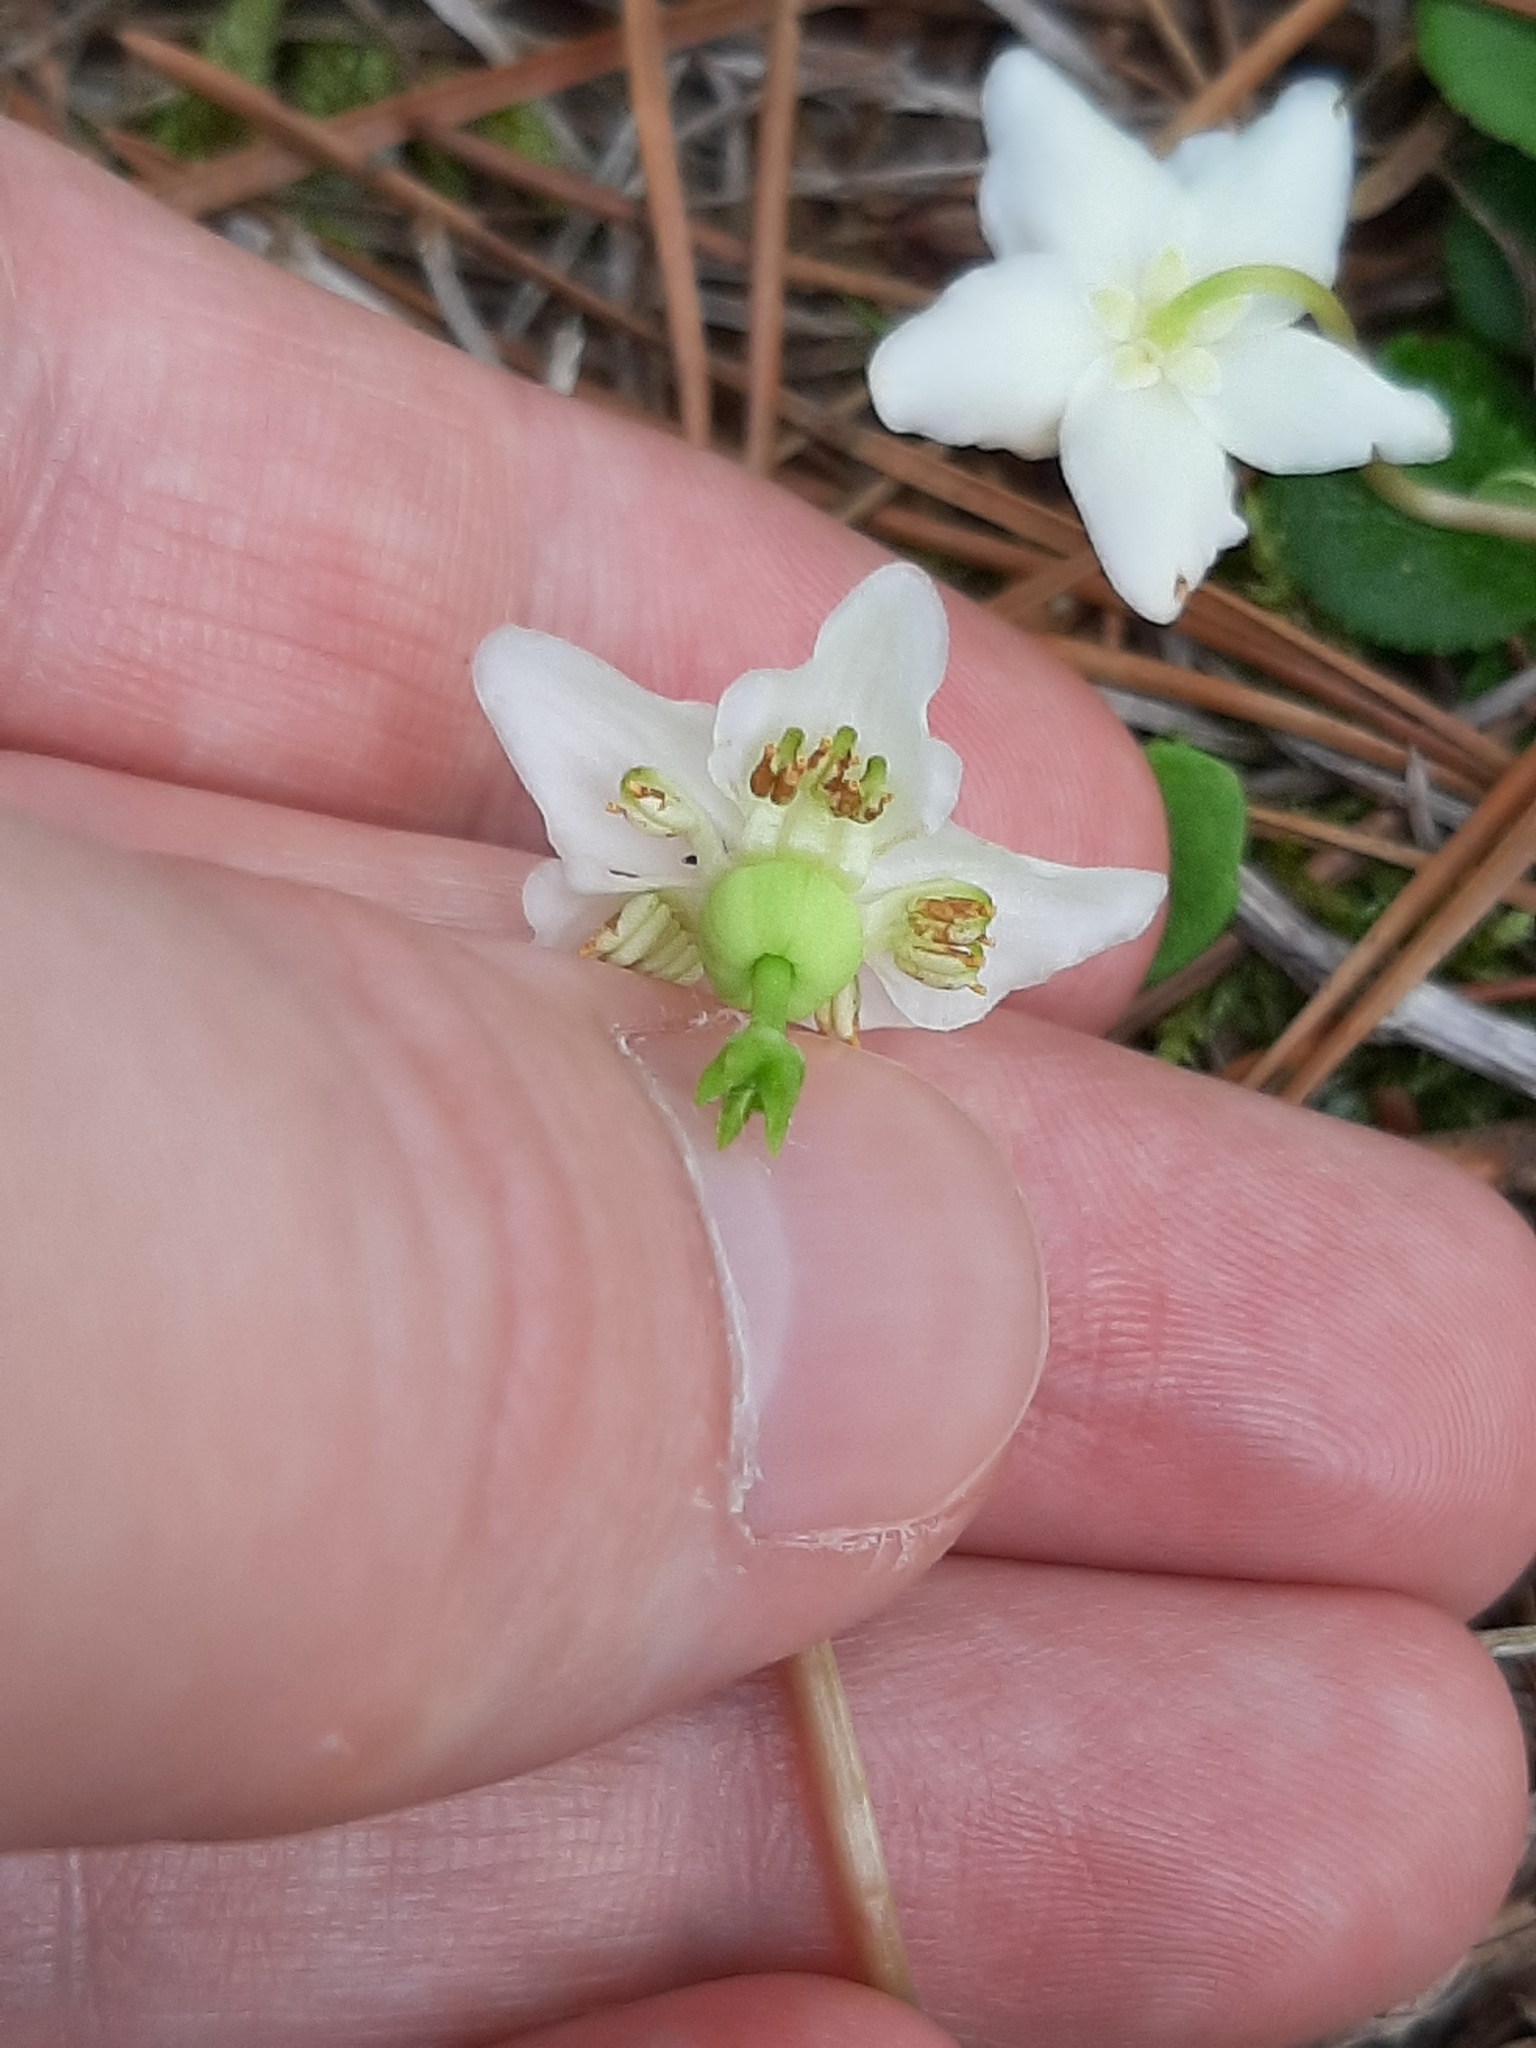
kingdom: Plantae
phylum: Tracheophyta
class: Magnoliopsida
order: Ericales
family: Ericaceae
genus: Moneses
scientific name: Moneses uniflora
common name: One-flowered wintergreen
